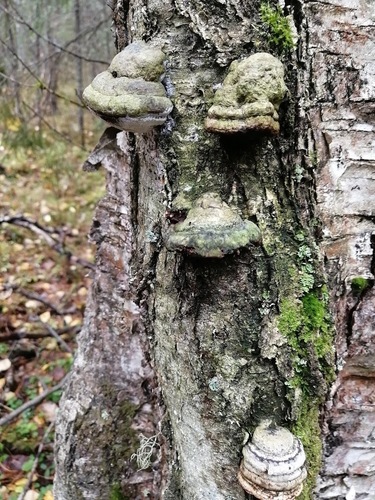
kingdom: Fungi
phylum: Basidiomycota
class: Agaricomycetes
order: Polyporales
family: Polyporaceae
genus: Fomes
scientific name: Fomes fomentarius
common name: Hoof fungus
